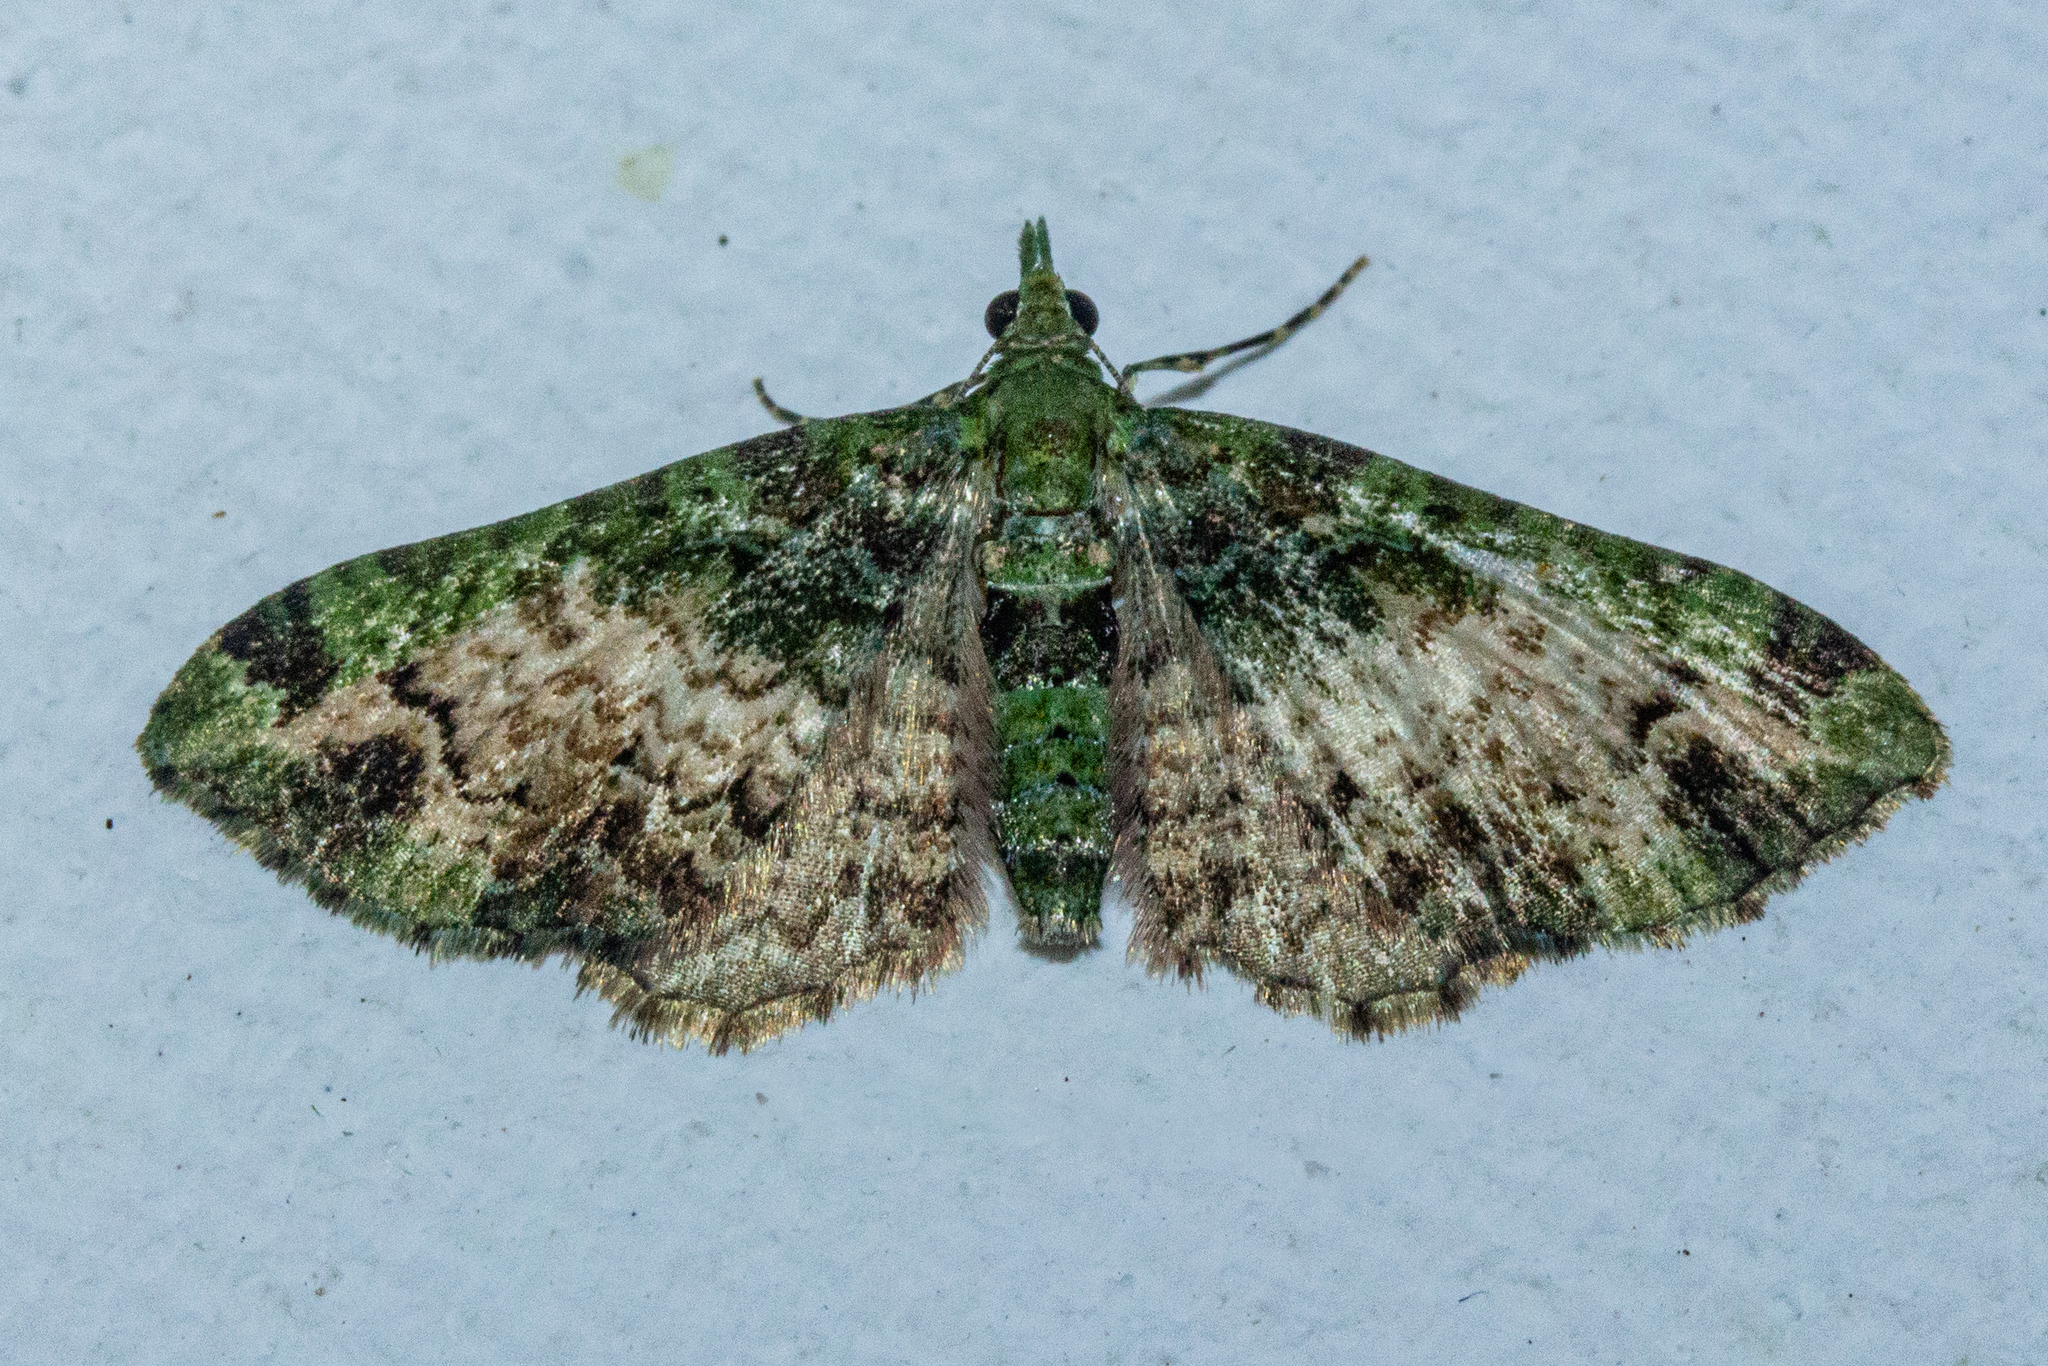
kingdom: Animalia
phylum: Arthropoda
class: Insecta
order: Lepidoptera
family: Geometridae
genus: Pasiphila
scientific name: Pasiphila malachita
